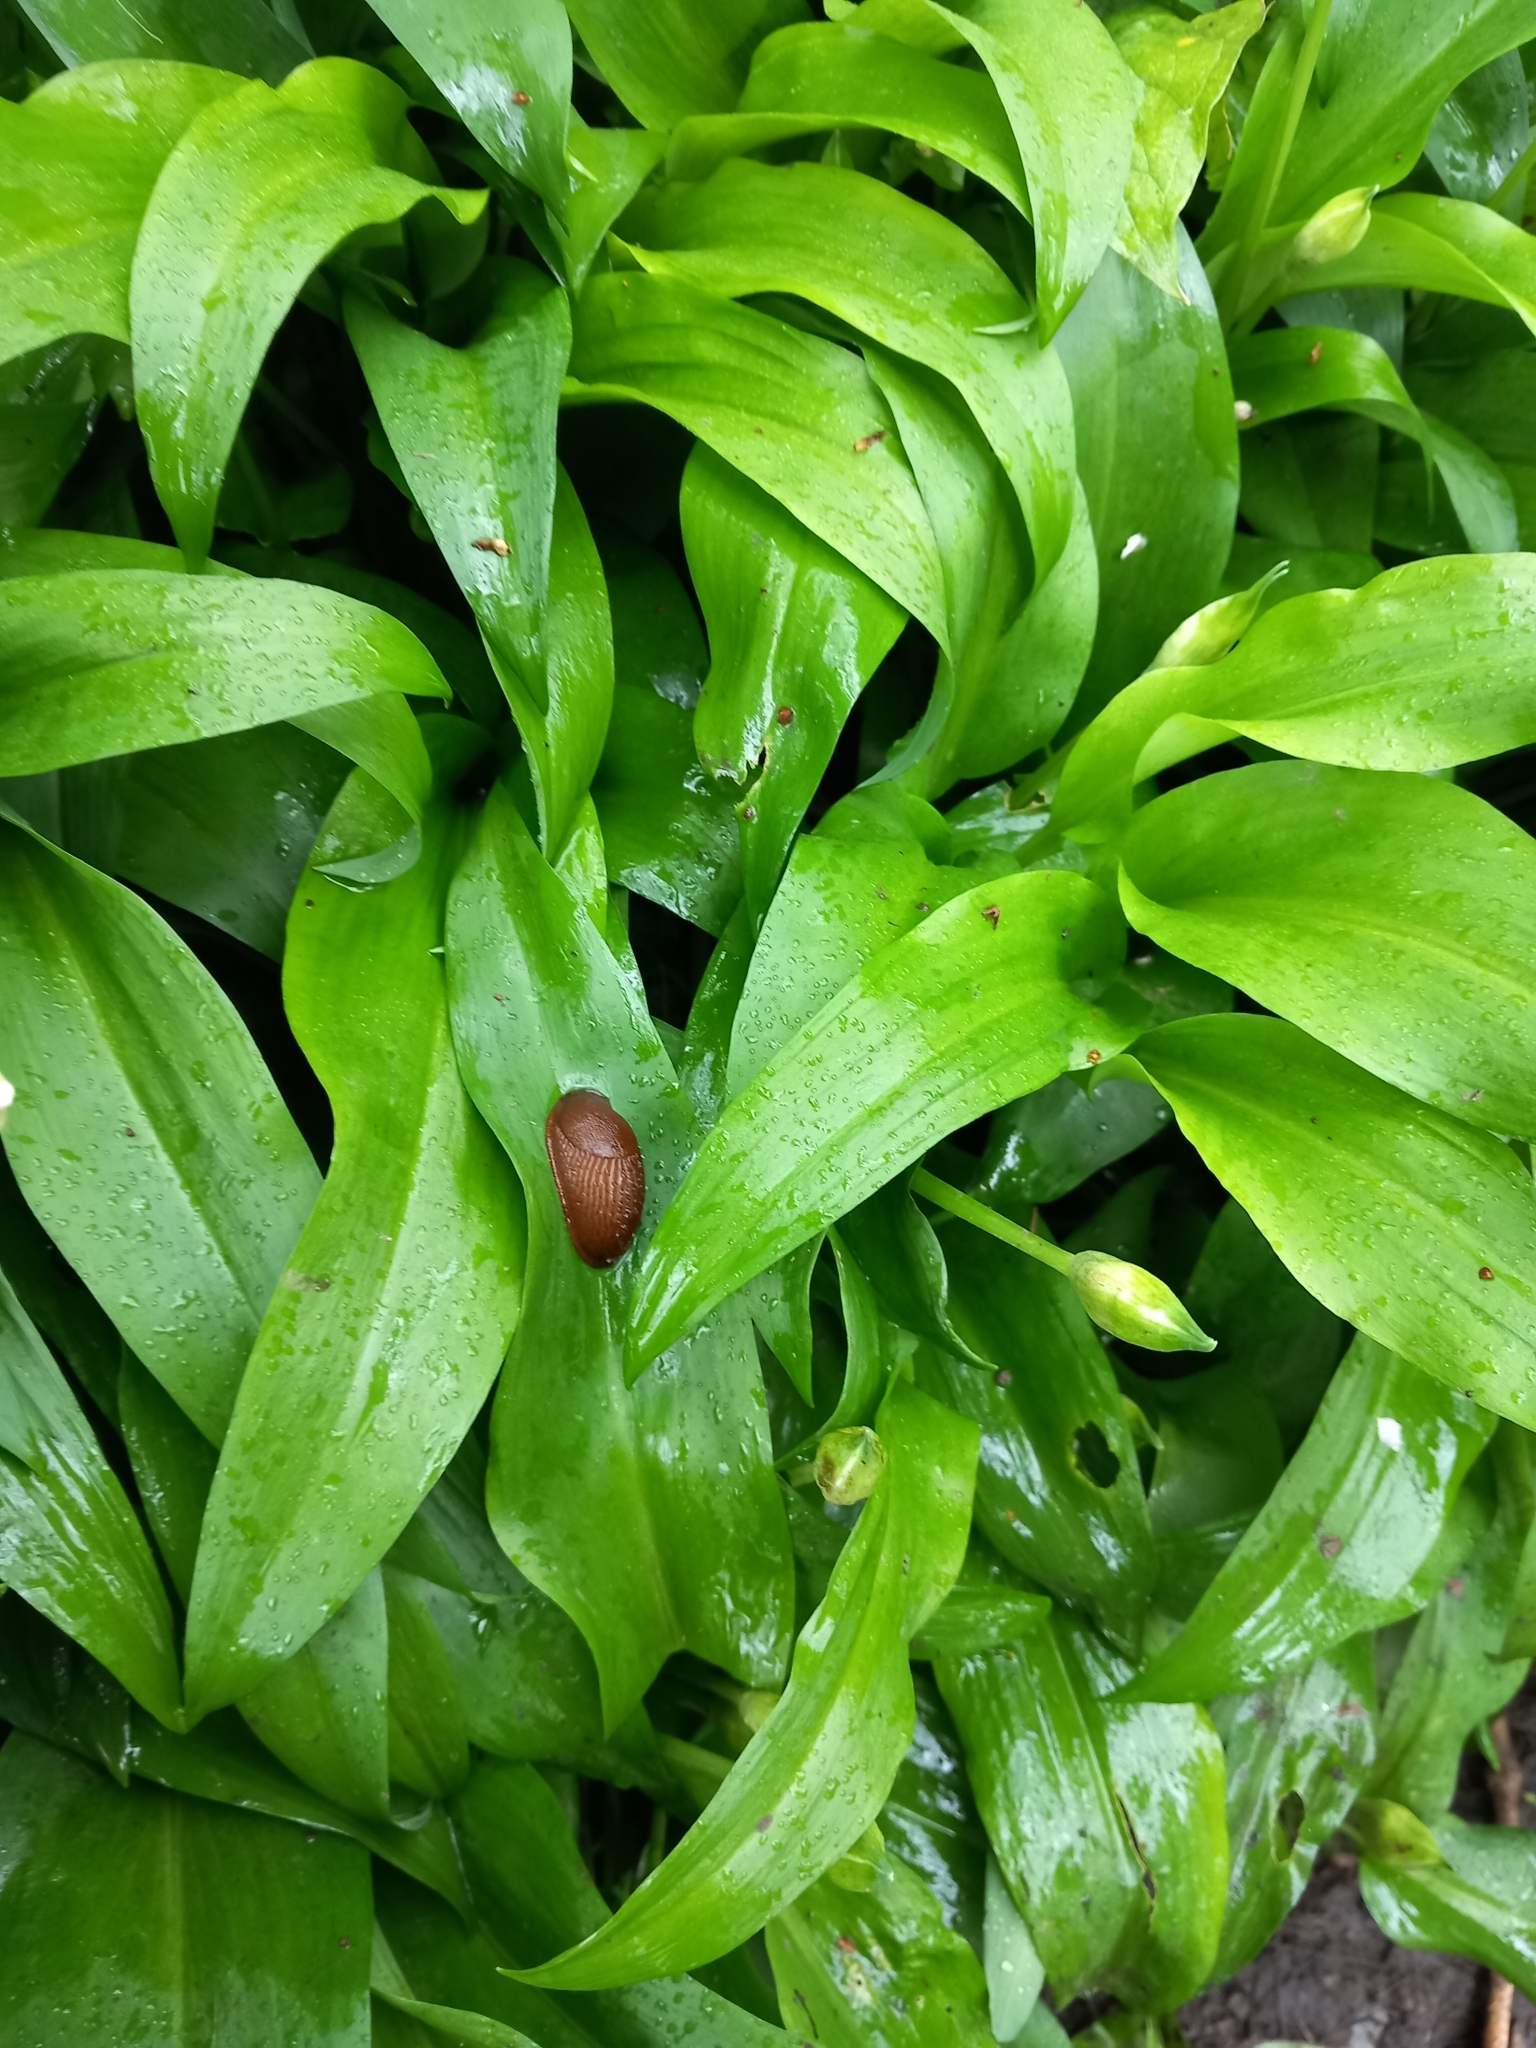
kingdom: Plantae
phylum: Tracheophyta
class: Liliopsida
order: Asparagales
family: Amaryllidaceae
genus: Allium
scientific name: Allium ursinum
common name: Ramsons
